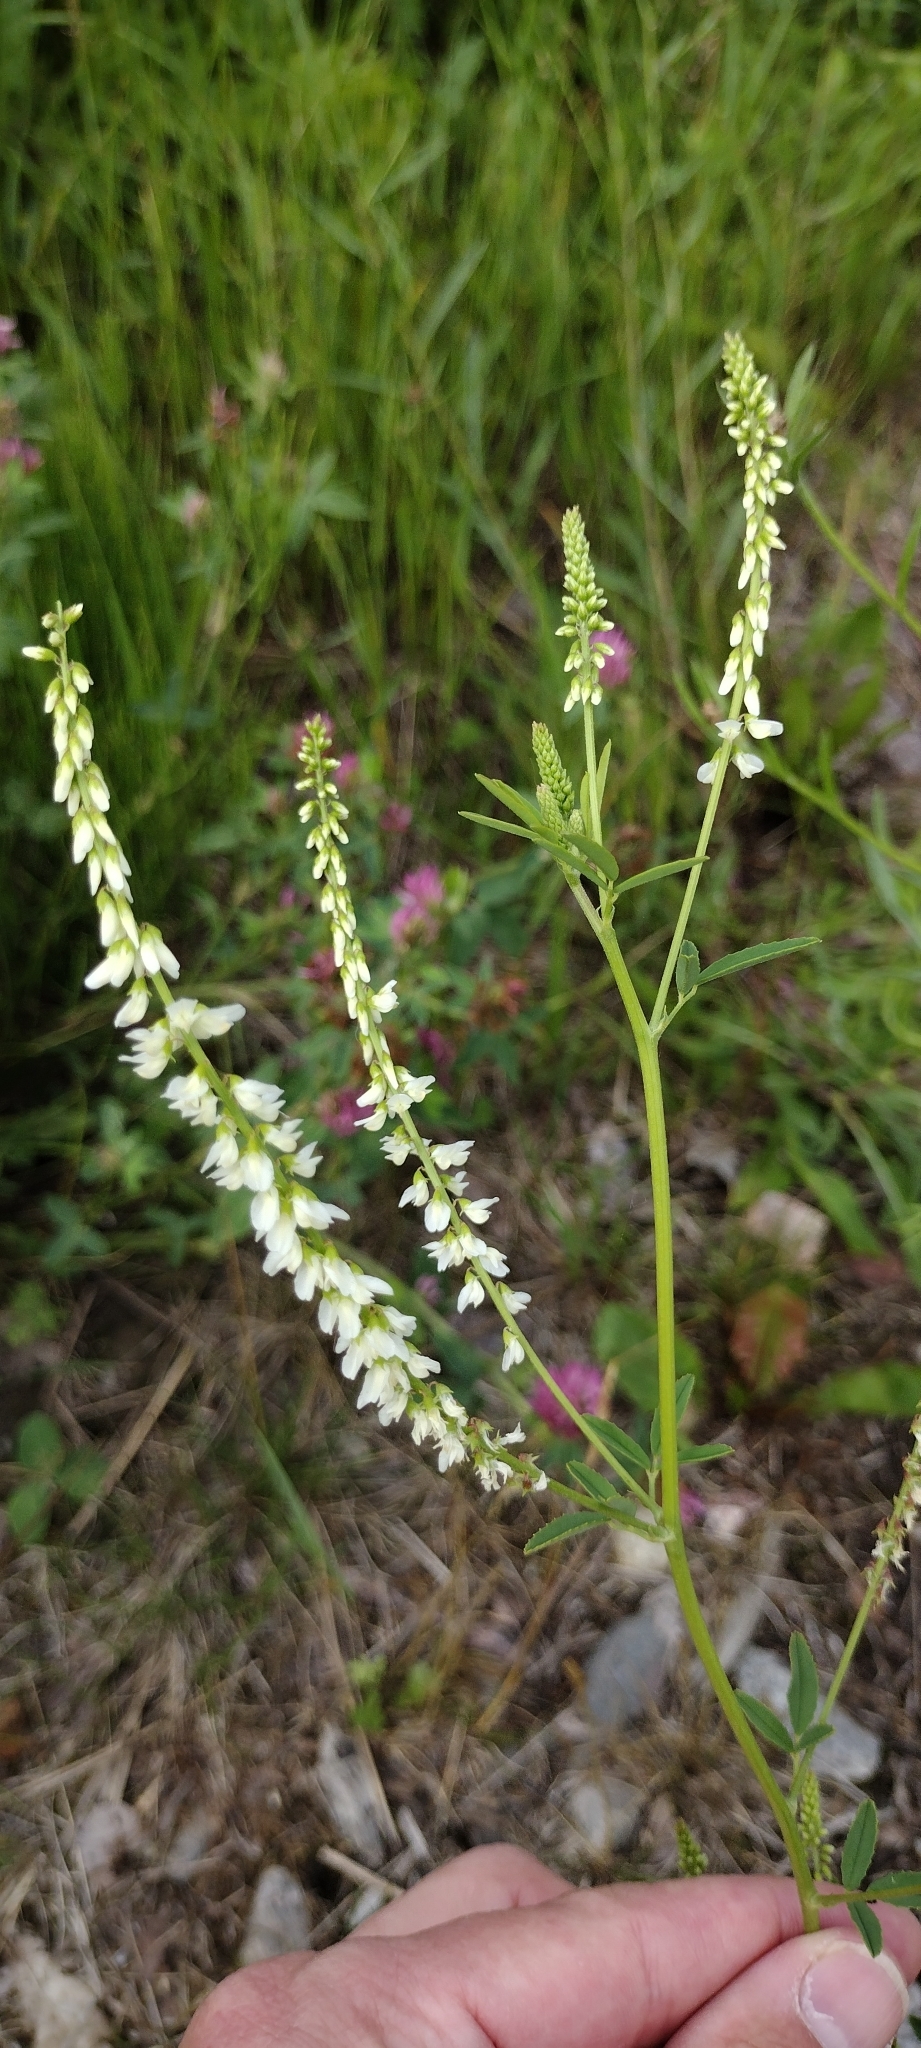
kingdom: Plantae
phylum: Tracheophyta
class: Magnoliopsida
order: Fabales
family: Fabaceae
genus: Melilotus
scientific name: Melilotus albus
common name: White melilot
